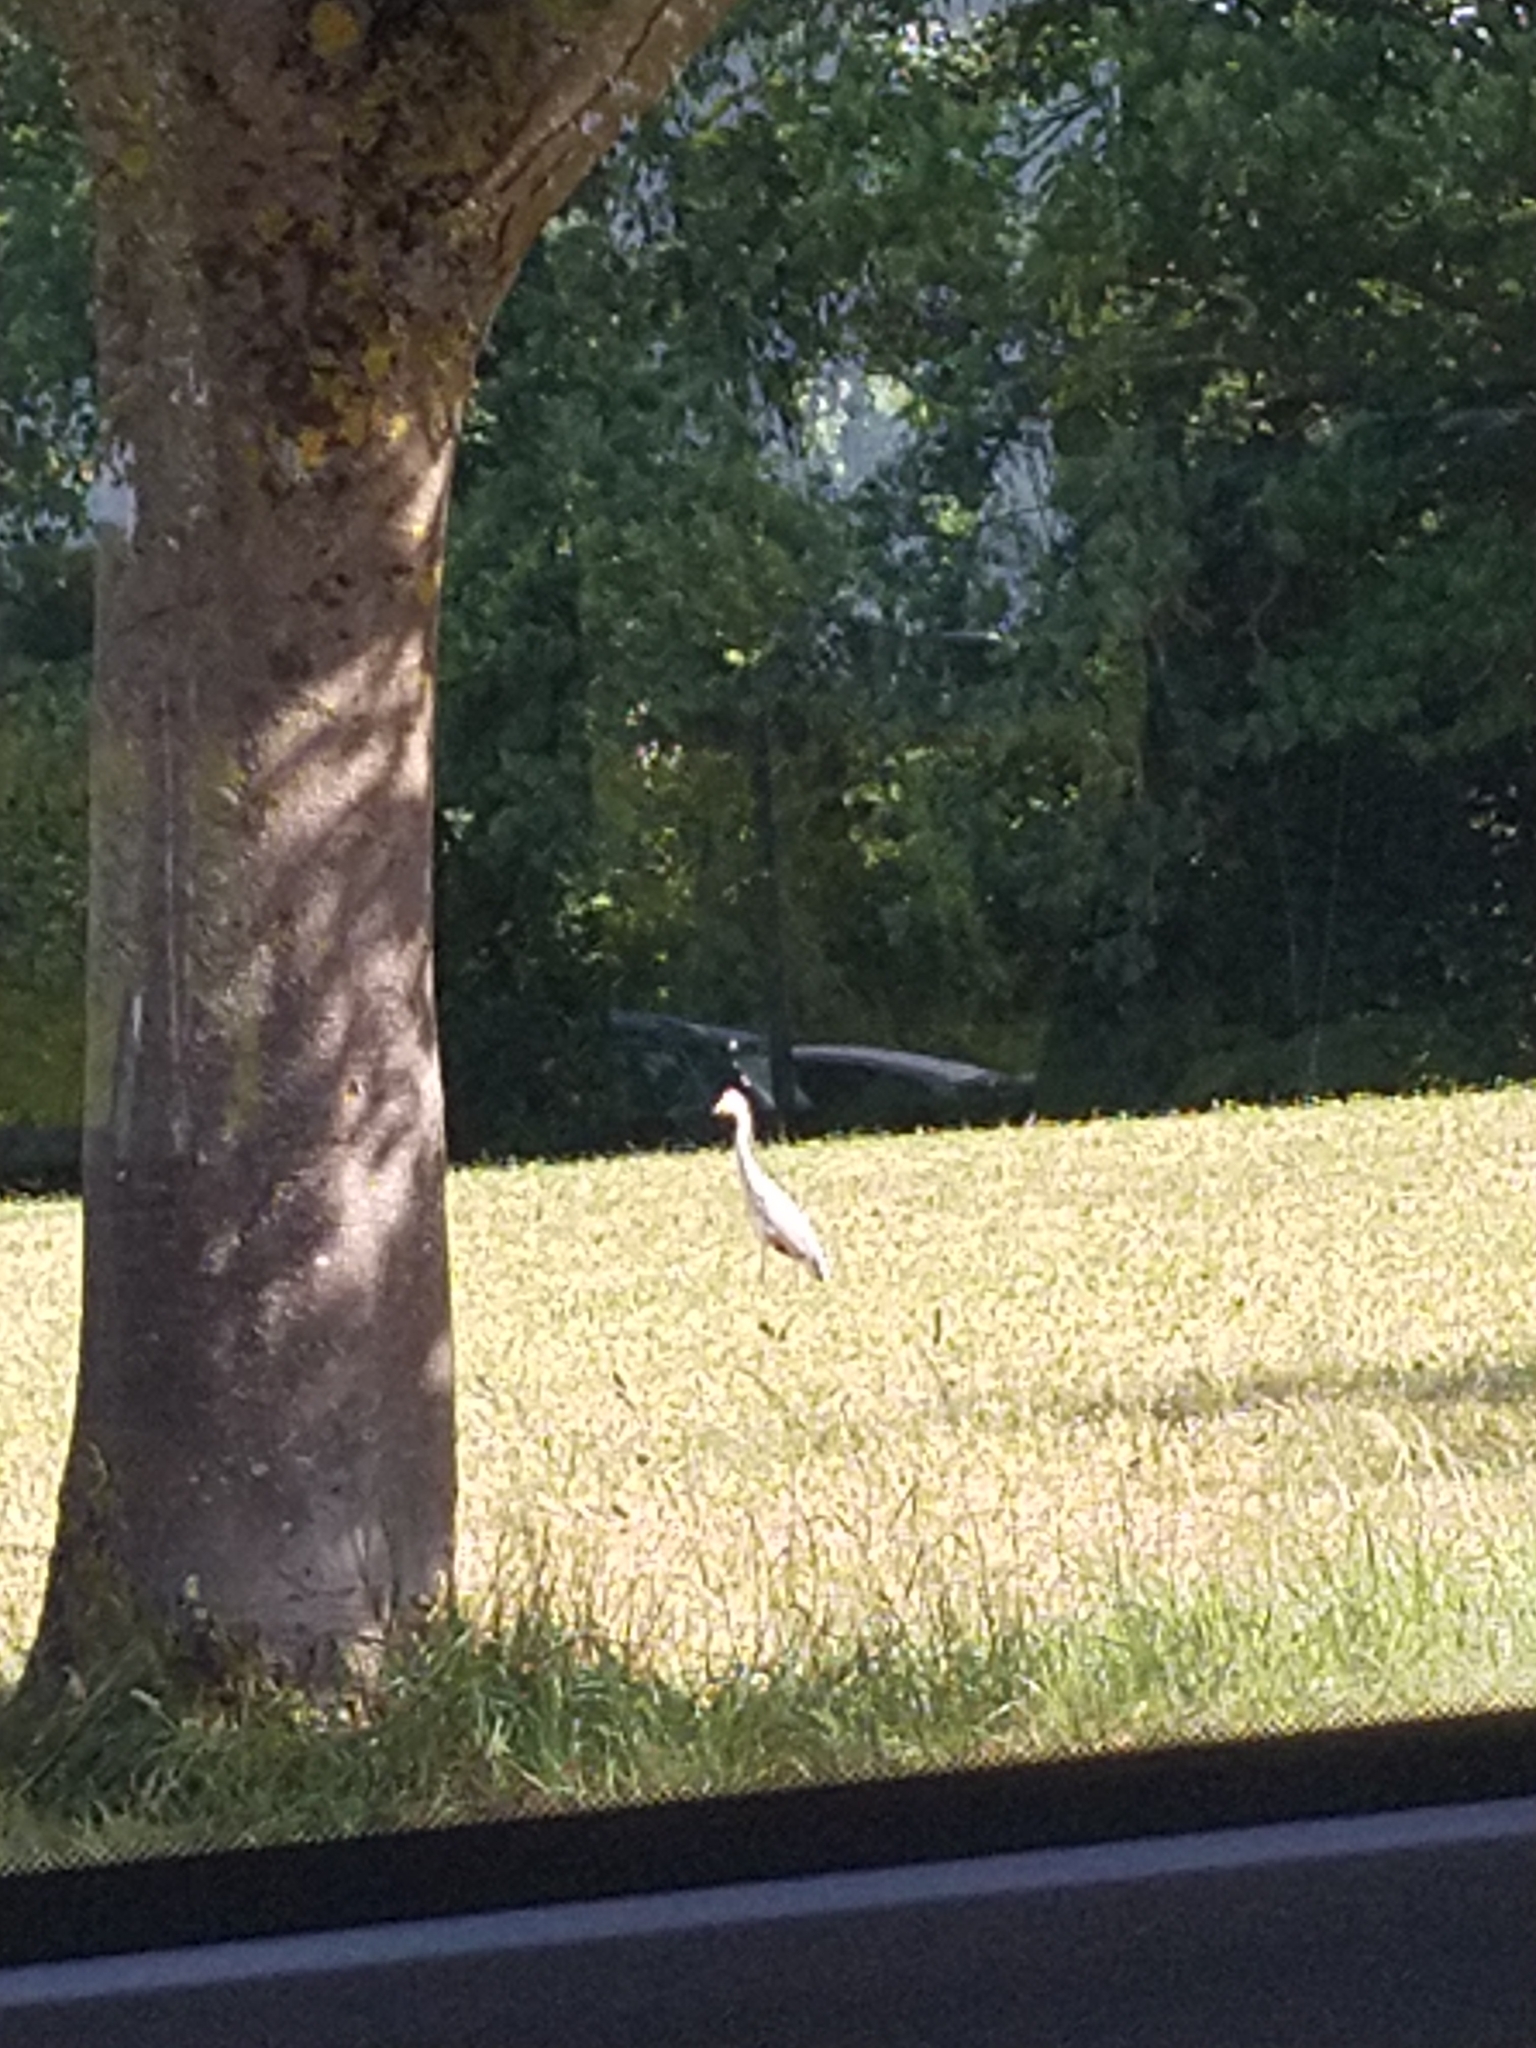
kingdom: Animalia
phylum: Chordata
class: Aves
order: Pelecaniformes
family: Ardeidae
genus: Ardea
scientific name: Ardea cinerea
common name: Grey heron
